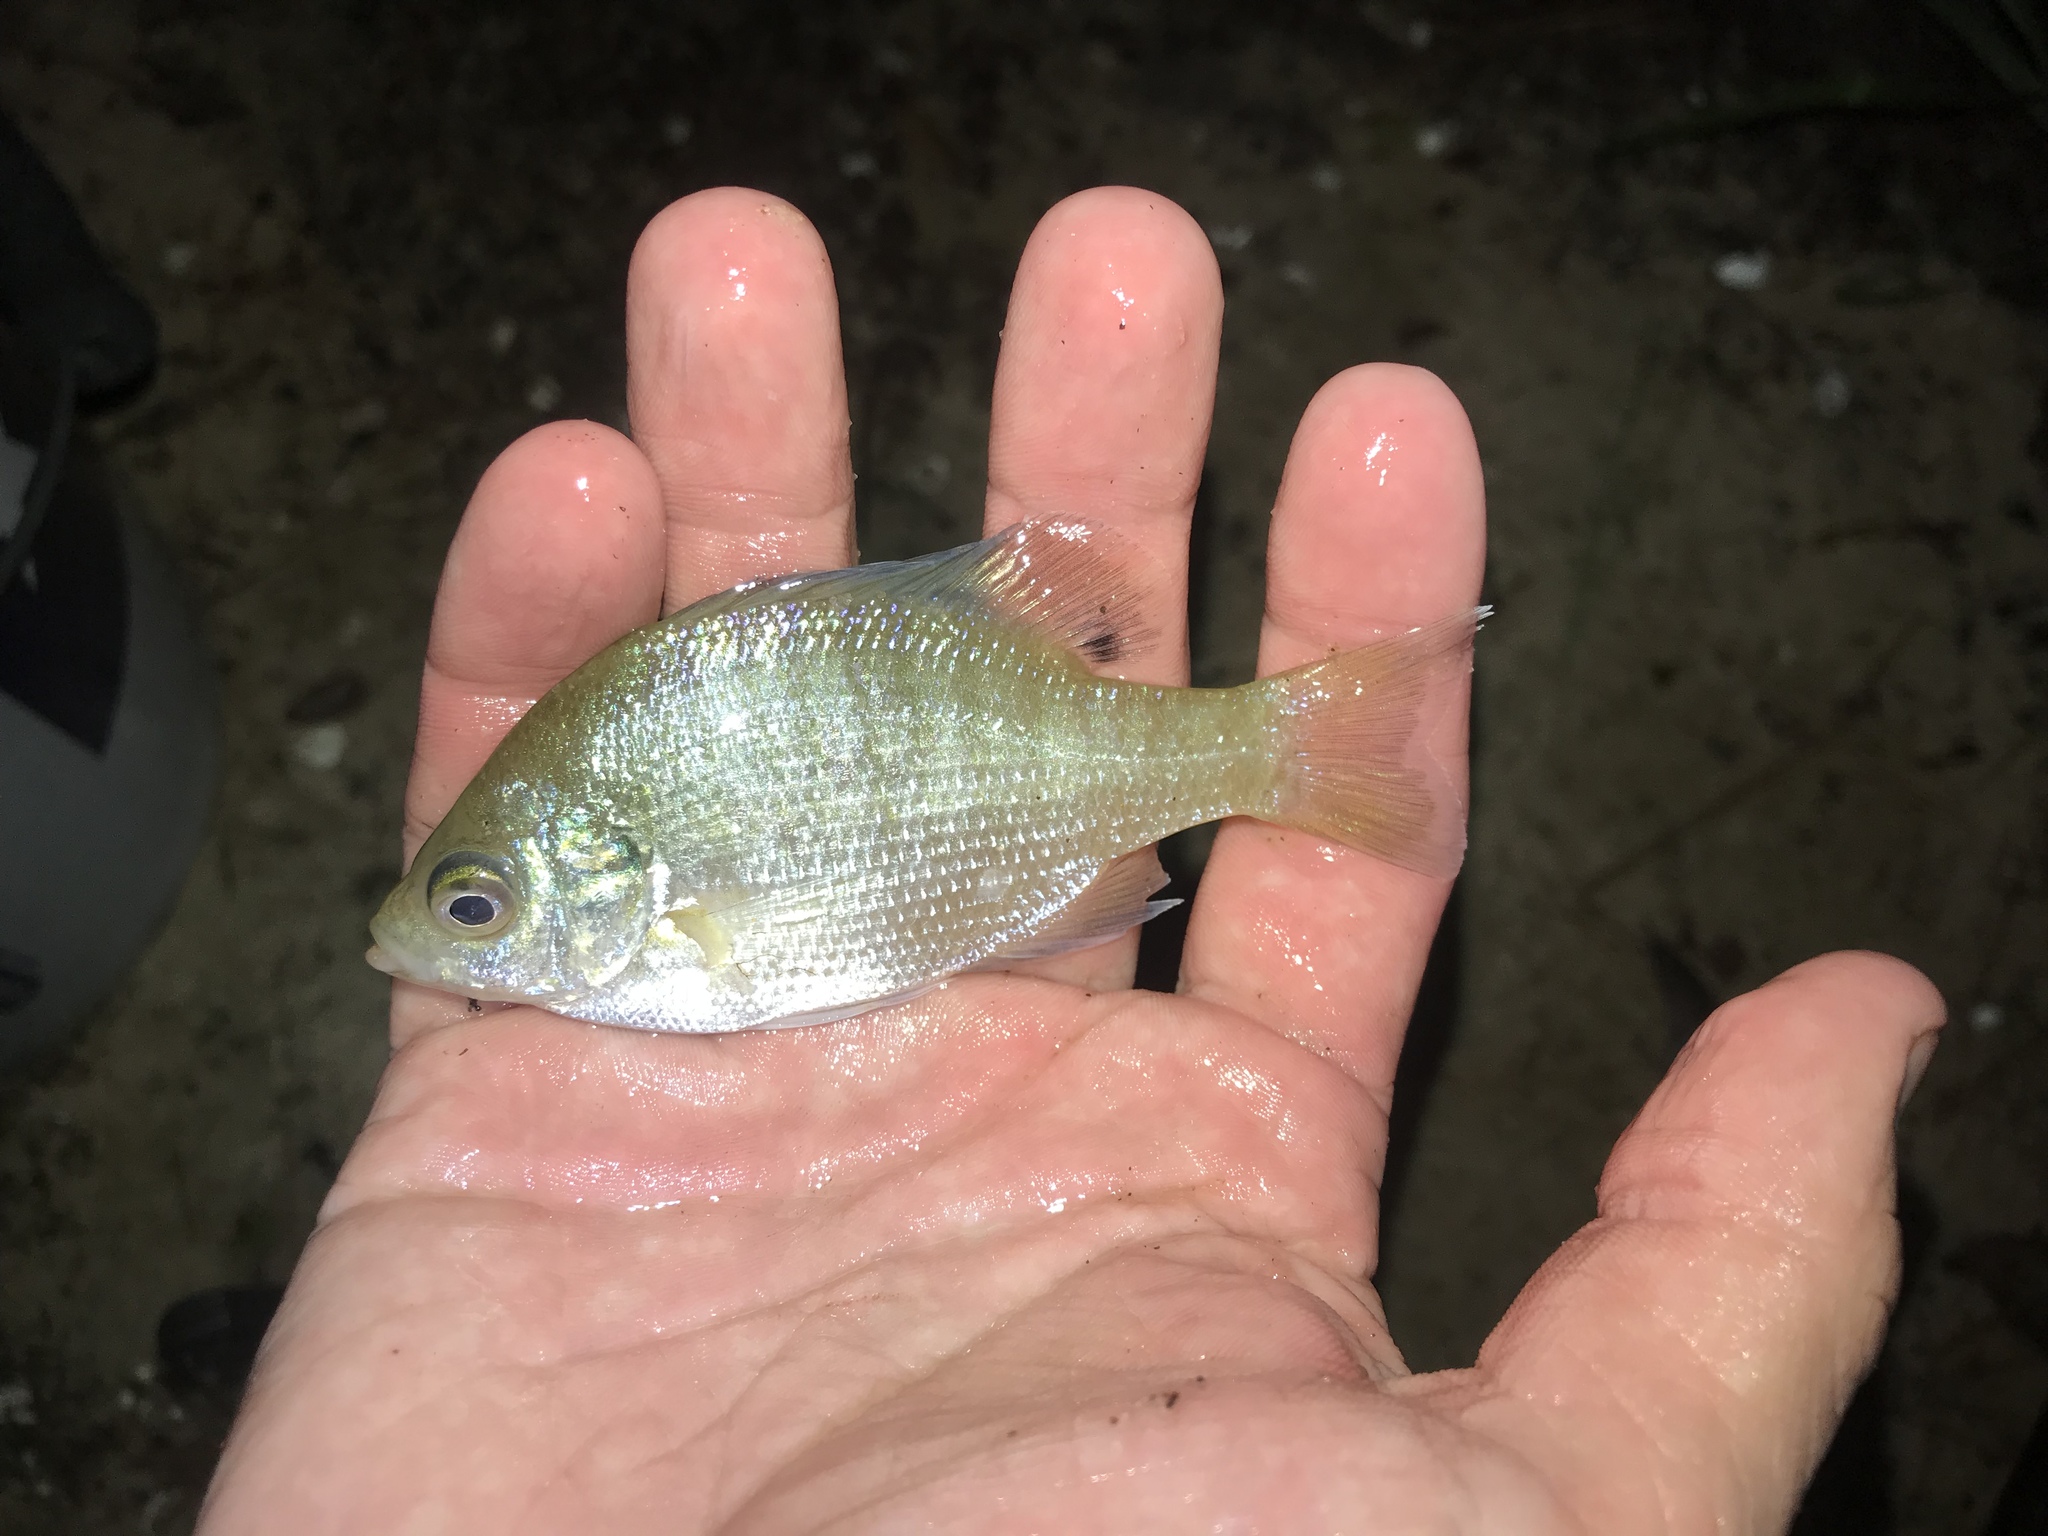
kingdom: Animalia
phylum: Chordata
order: Perciformes
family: Centrarchidae
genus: Lepomis
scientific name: Lepomis macrochirus
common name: Bluegill
